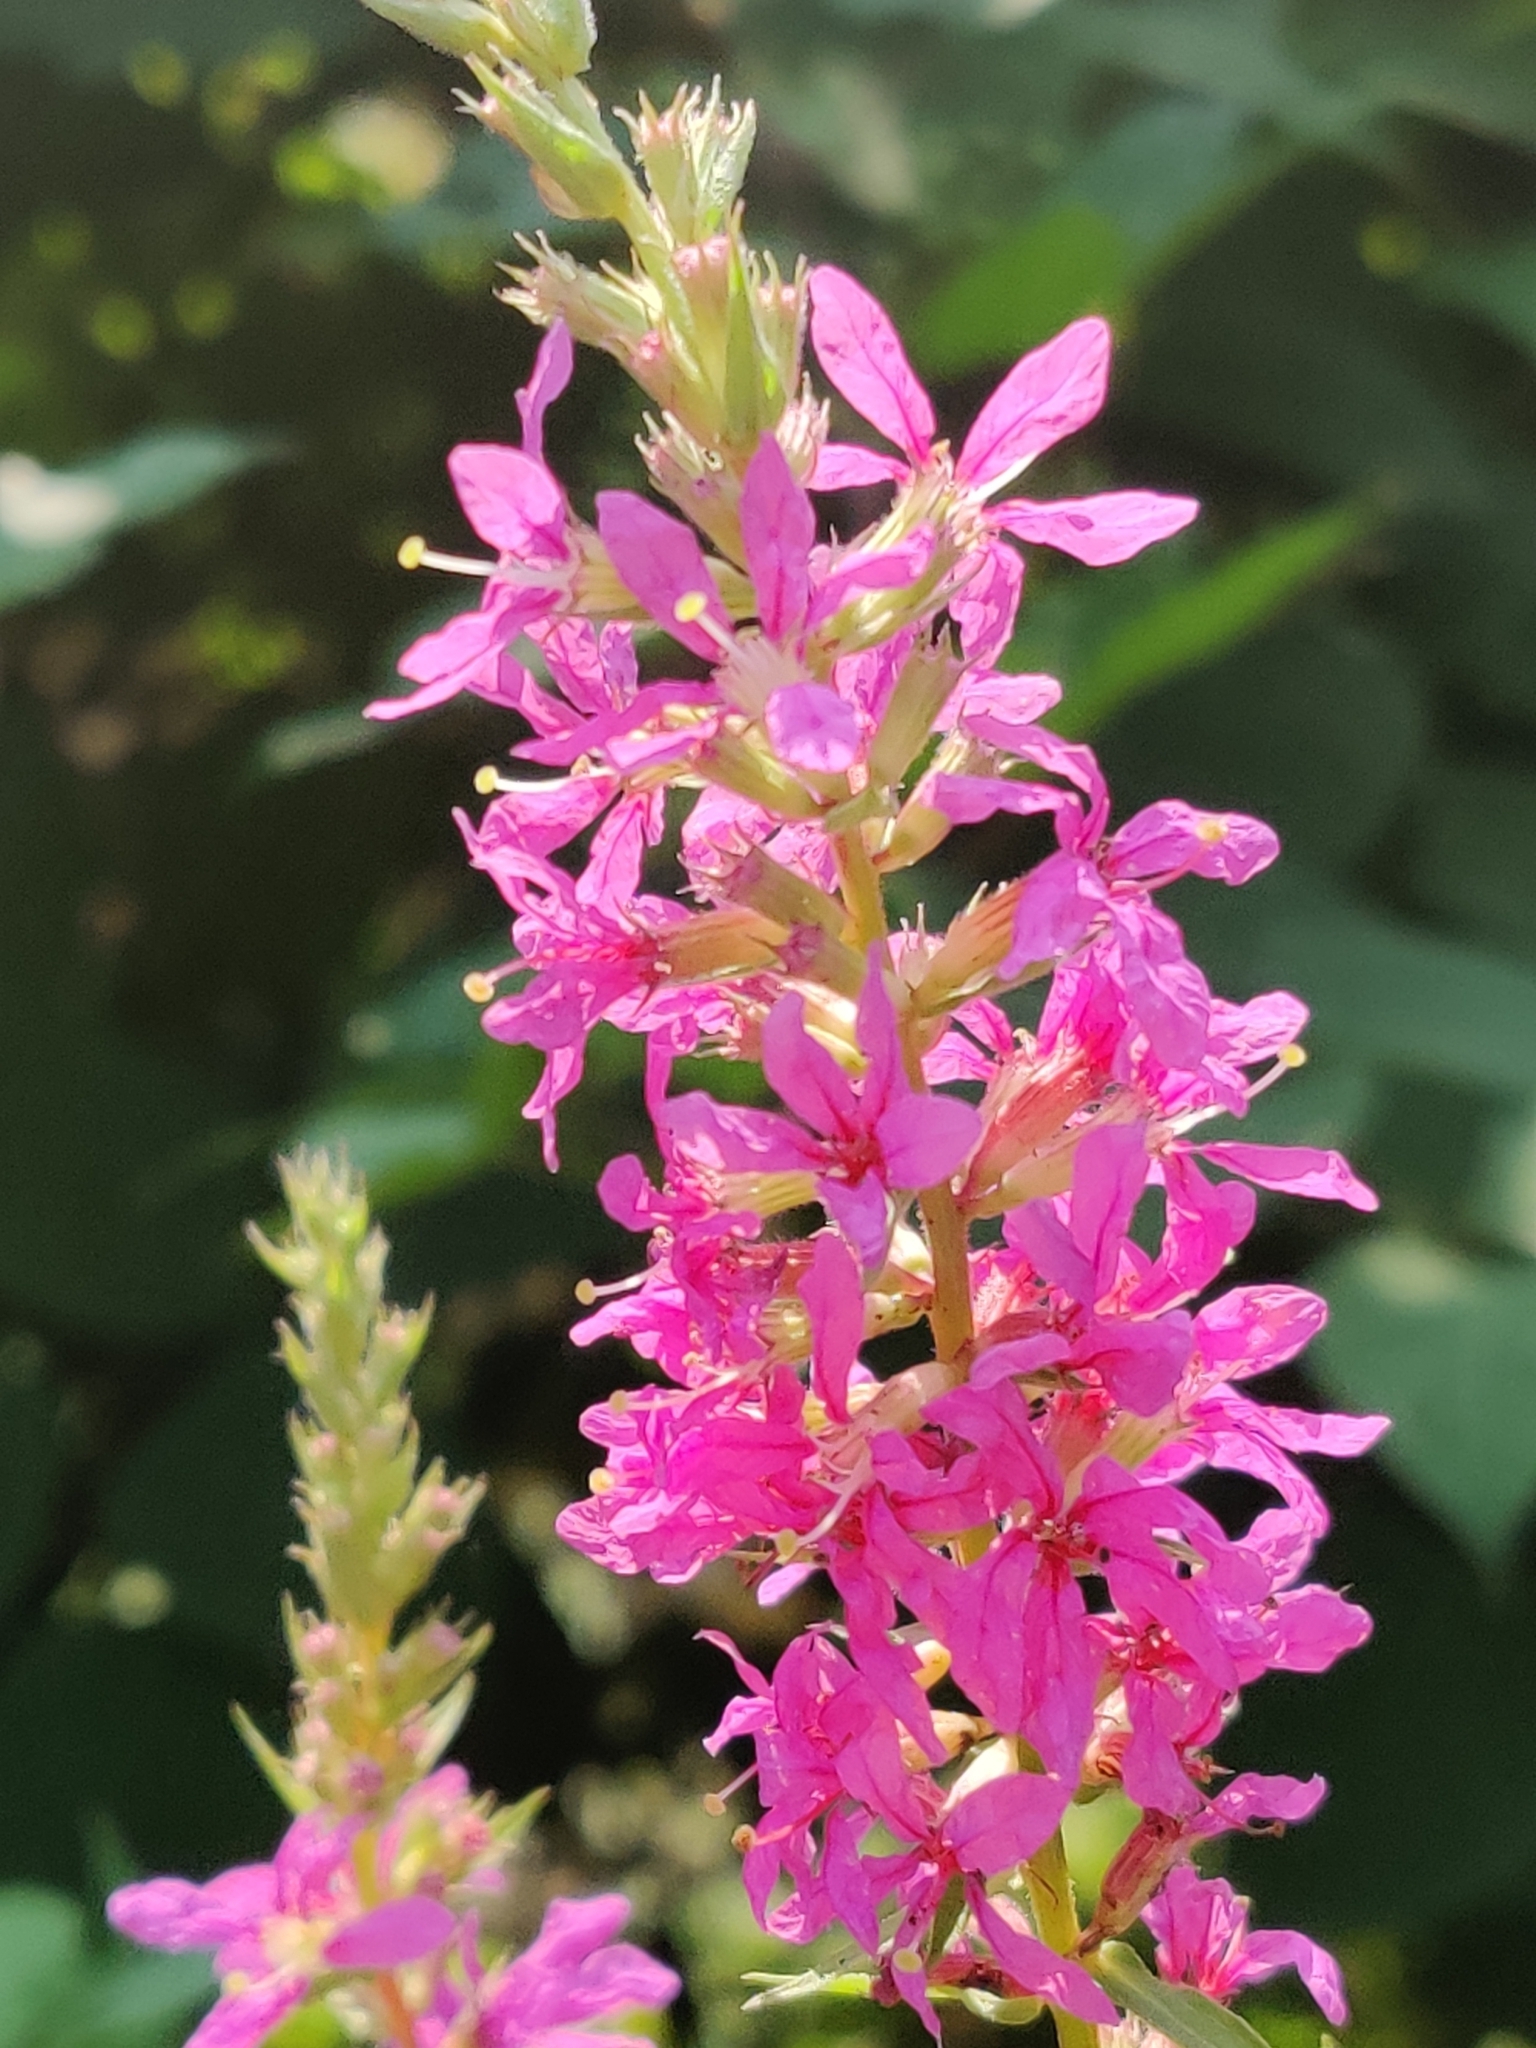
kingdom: Plantae
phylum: Tracheophyta
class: Magnoliopsida
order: Myrtales
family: Lythraceae
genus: Lythrum
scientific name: Lythrum salicaria
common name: Purple loosestrife
